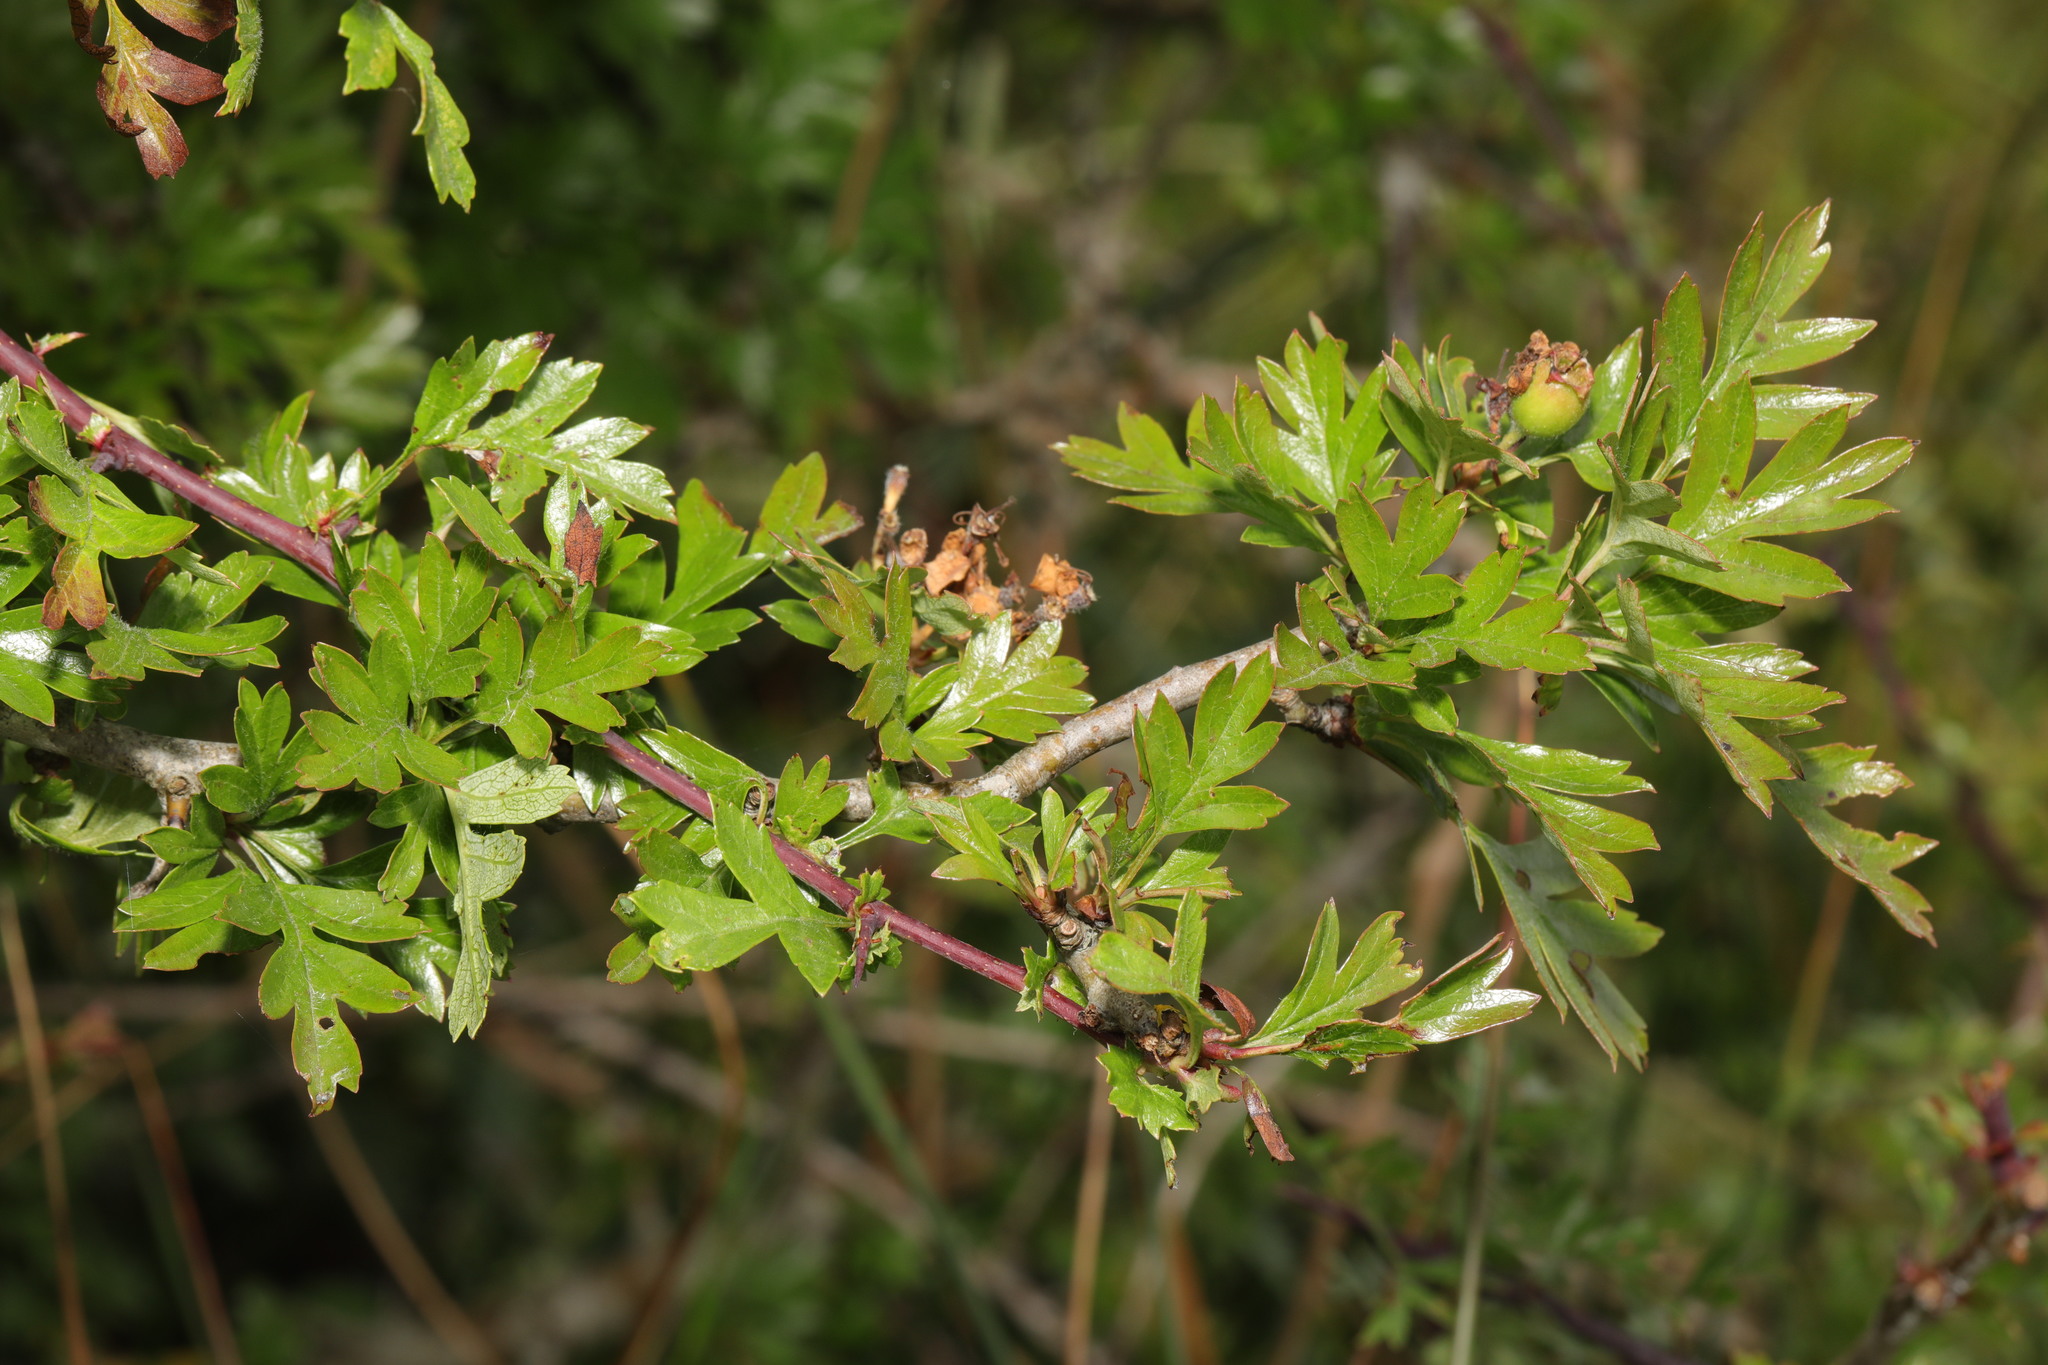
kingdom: Plantae
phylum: Tracheophyta
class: Magnoliopsida
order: Rosales
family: Rosaceae
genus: Crataegus
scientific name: Crataegus monogyna
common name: Hawthorn
